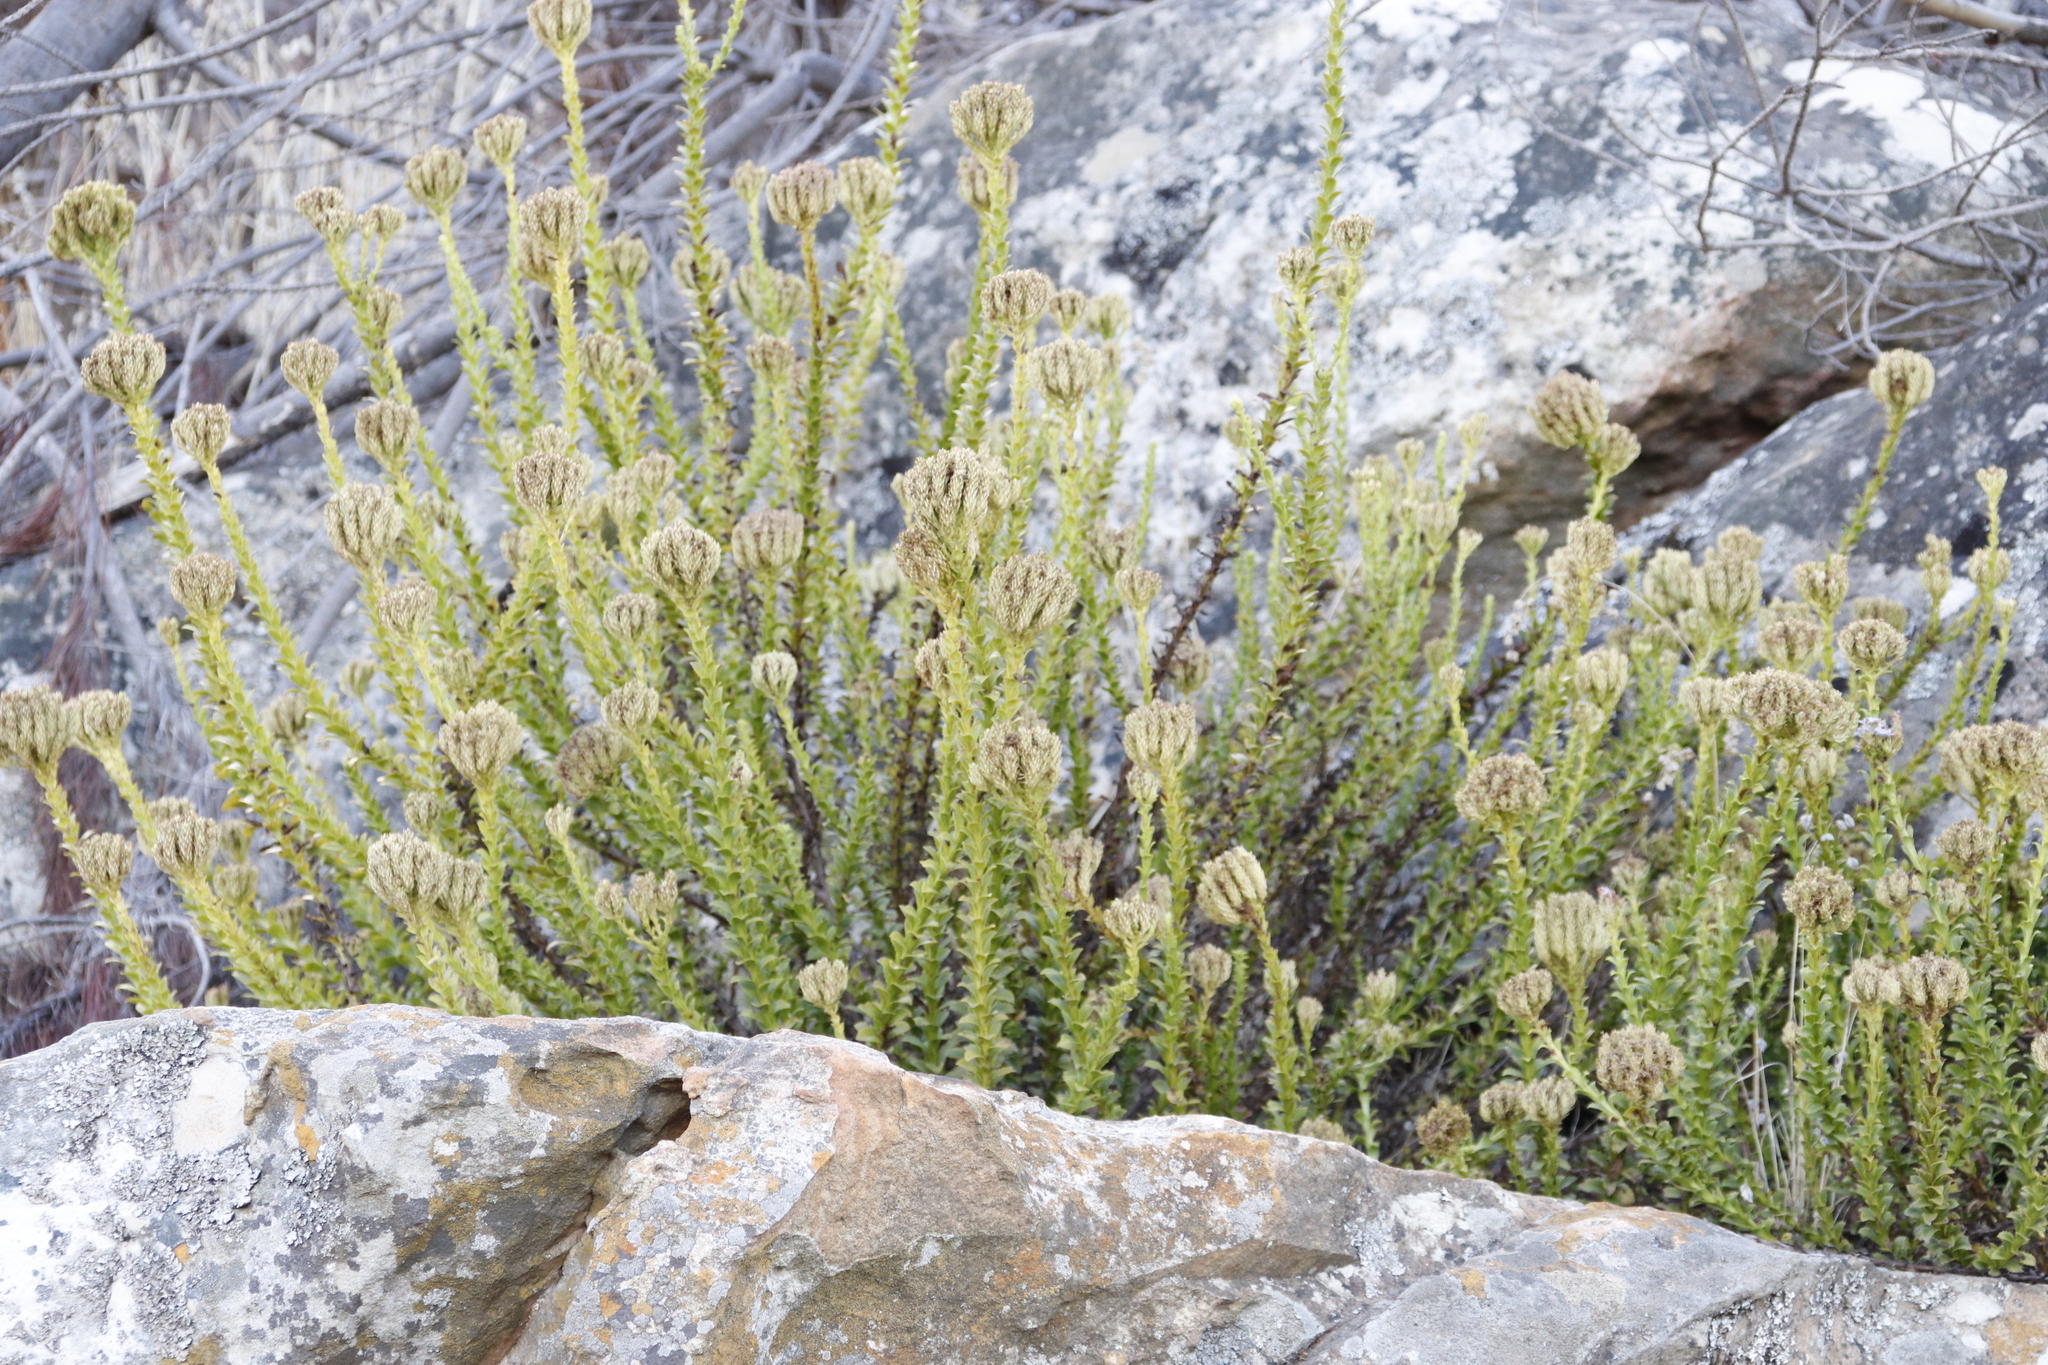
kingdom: Plantae
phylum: Tracheophyta
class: Magnoliopsida
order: Lamiales
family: Scrophulariaceae
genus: Pseudoselago
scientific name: Pseudoselago serrata
